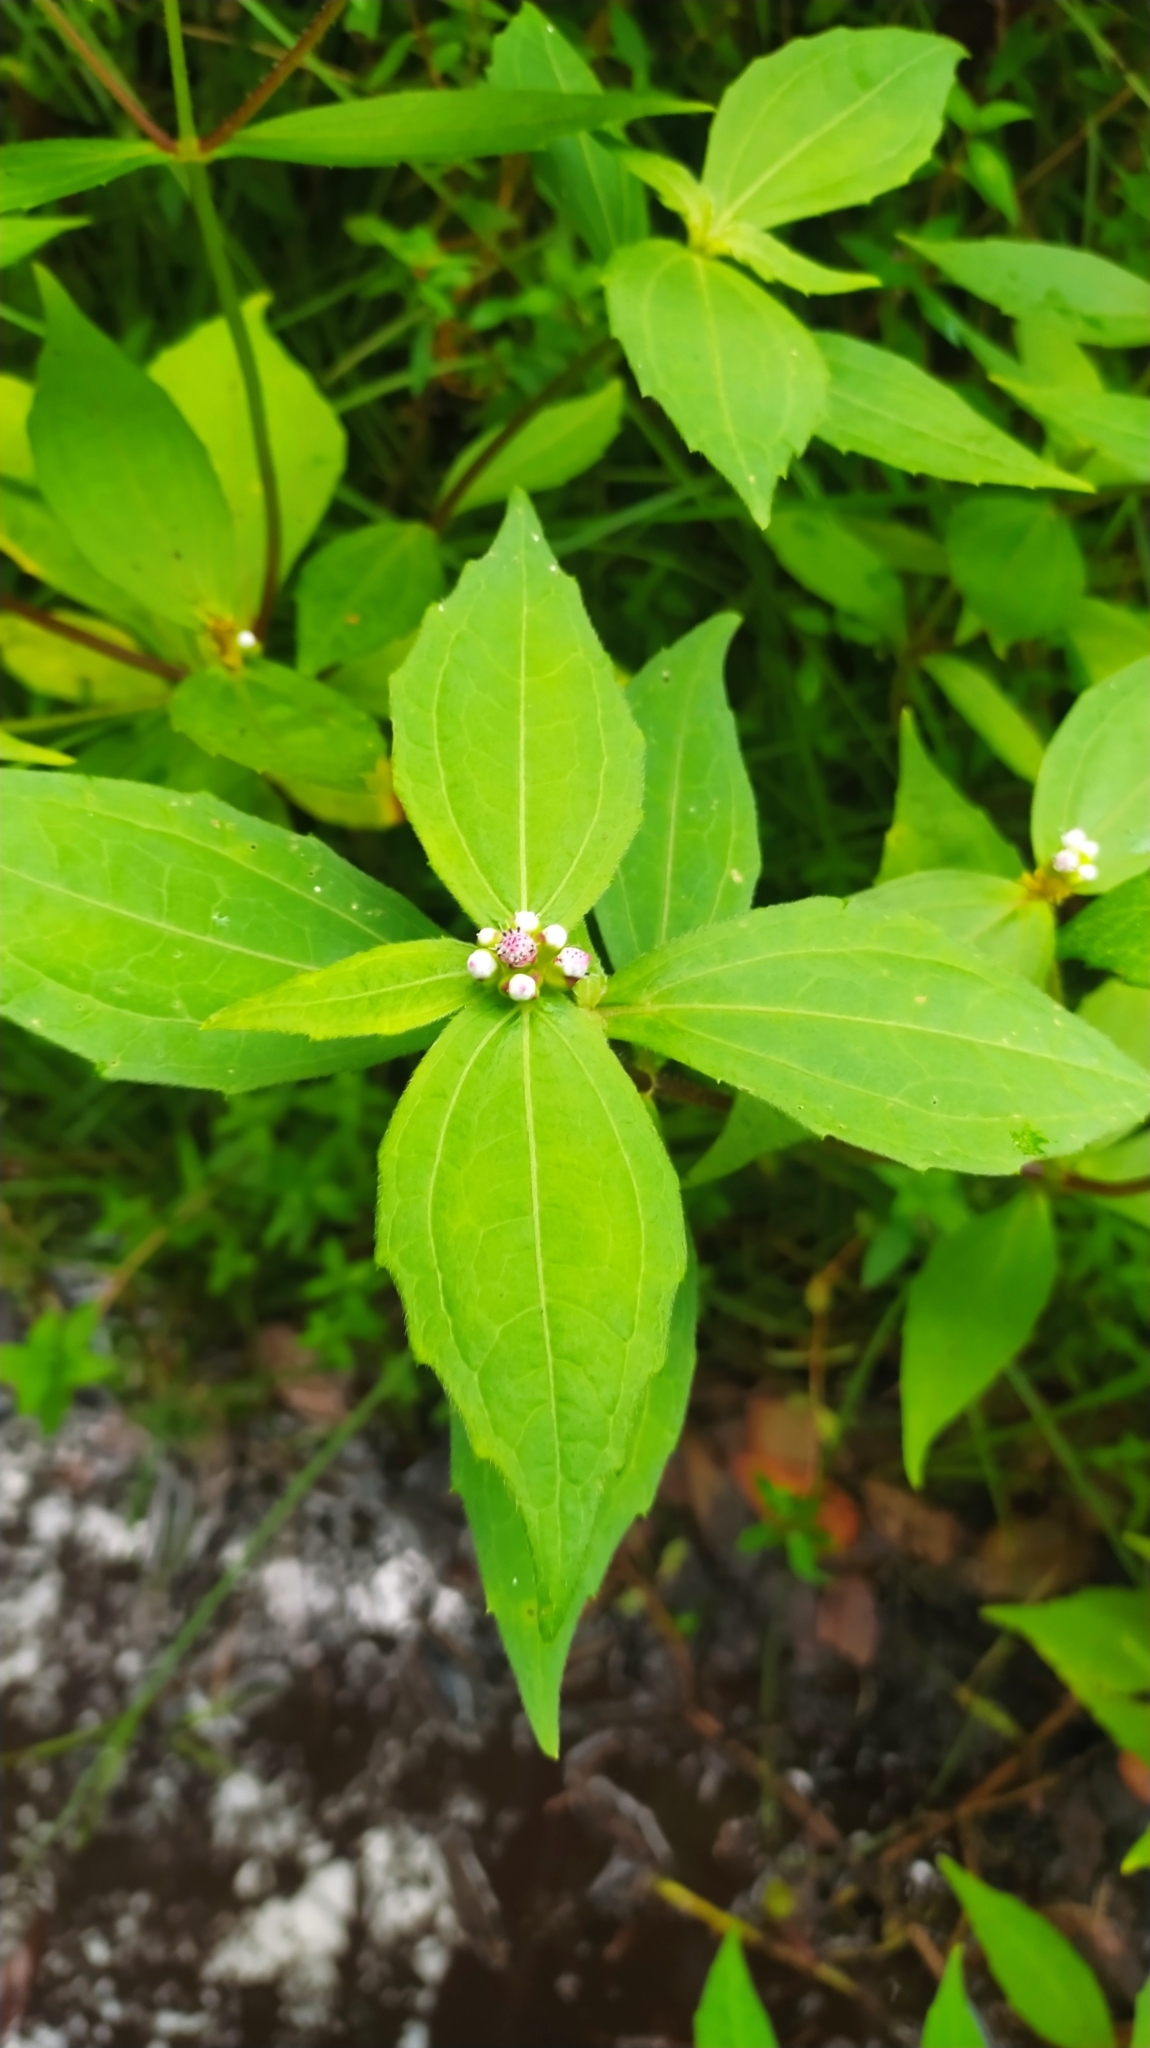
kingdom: Plantae
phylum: Tracheophyta
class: Magnoliopsida
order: Asterales
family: Asteraceae
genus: Ichthyothere
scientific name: Ichthyothere granvillei
